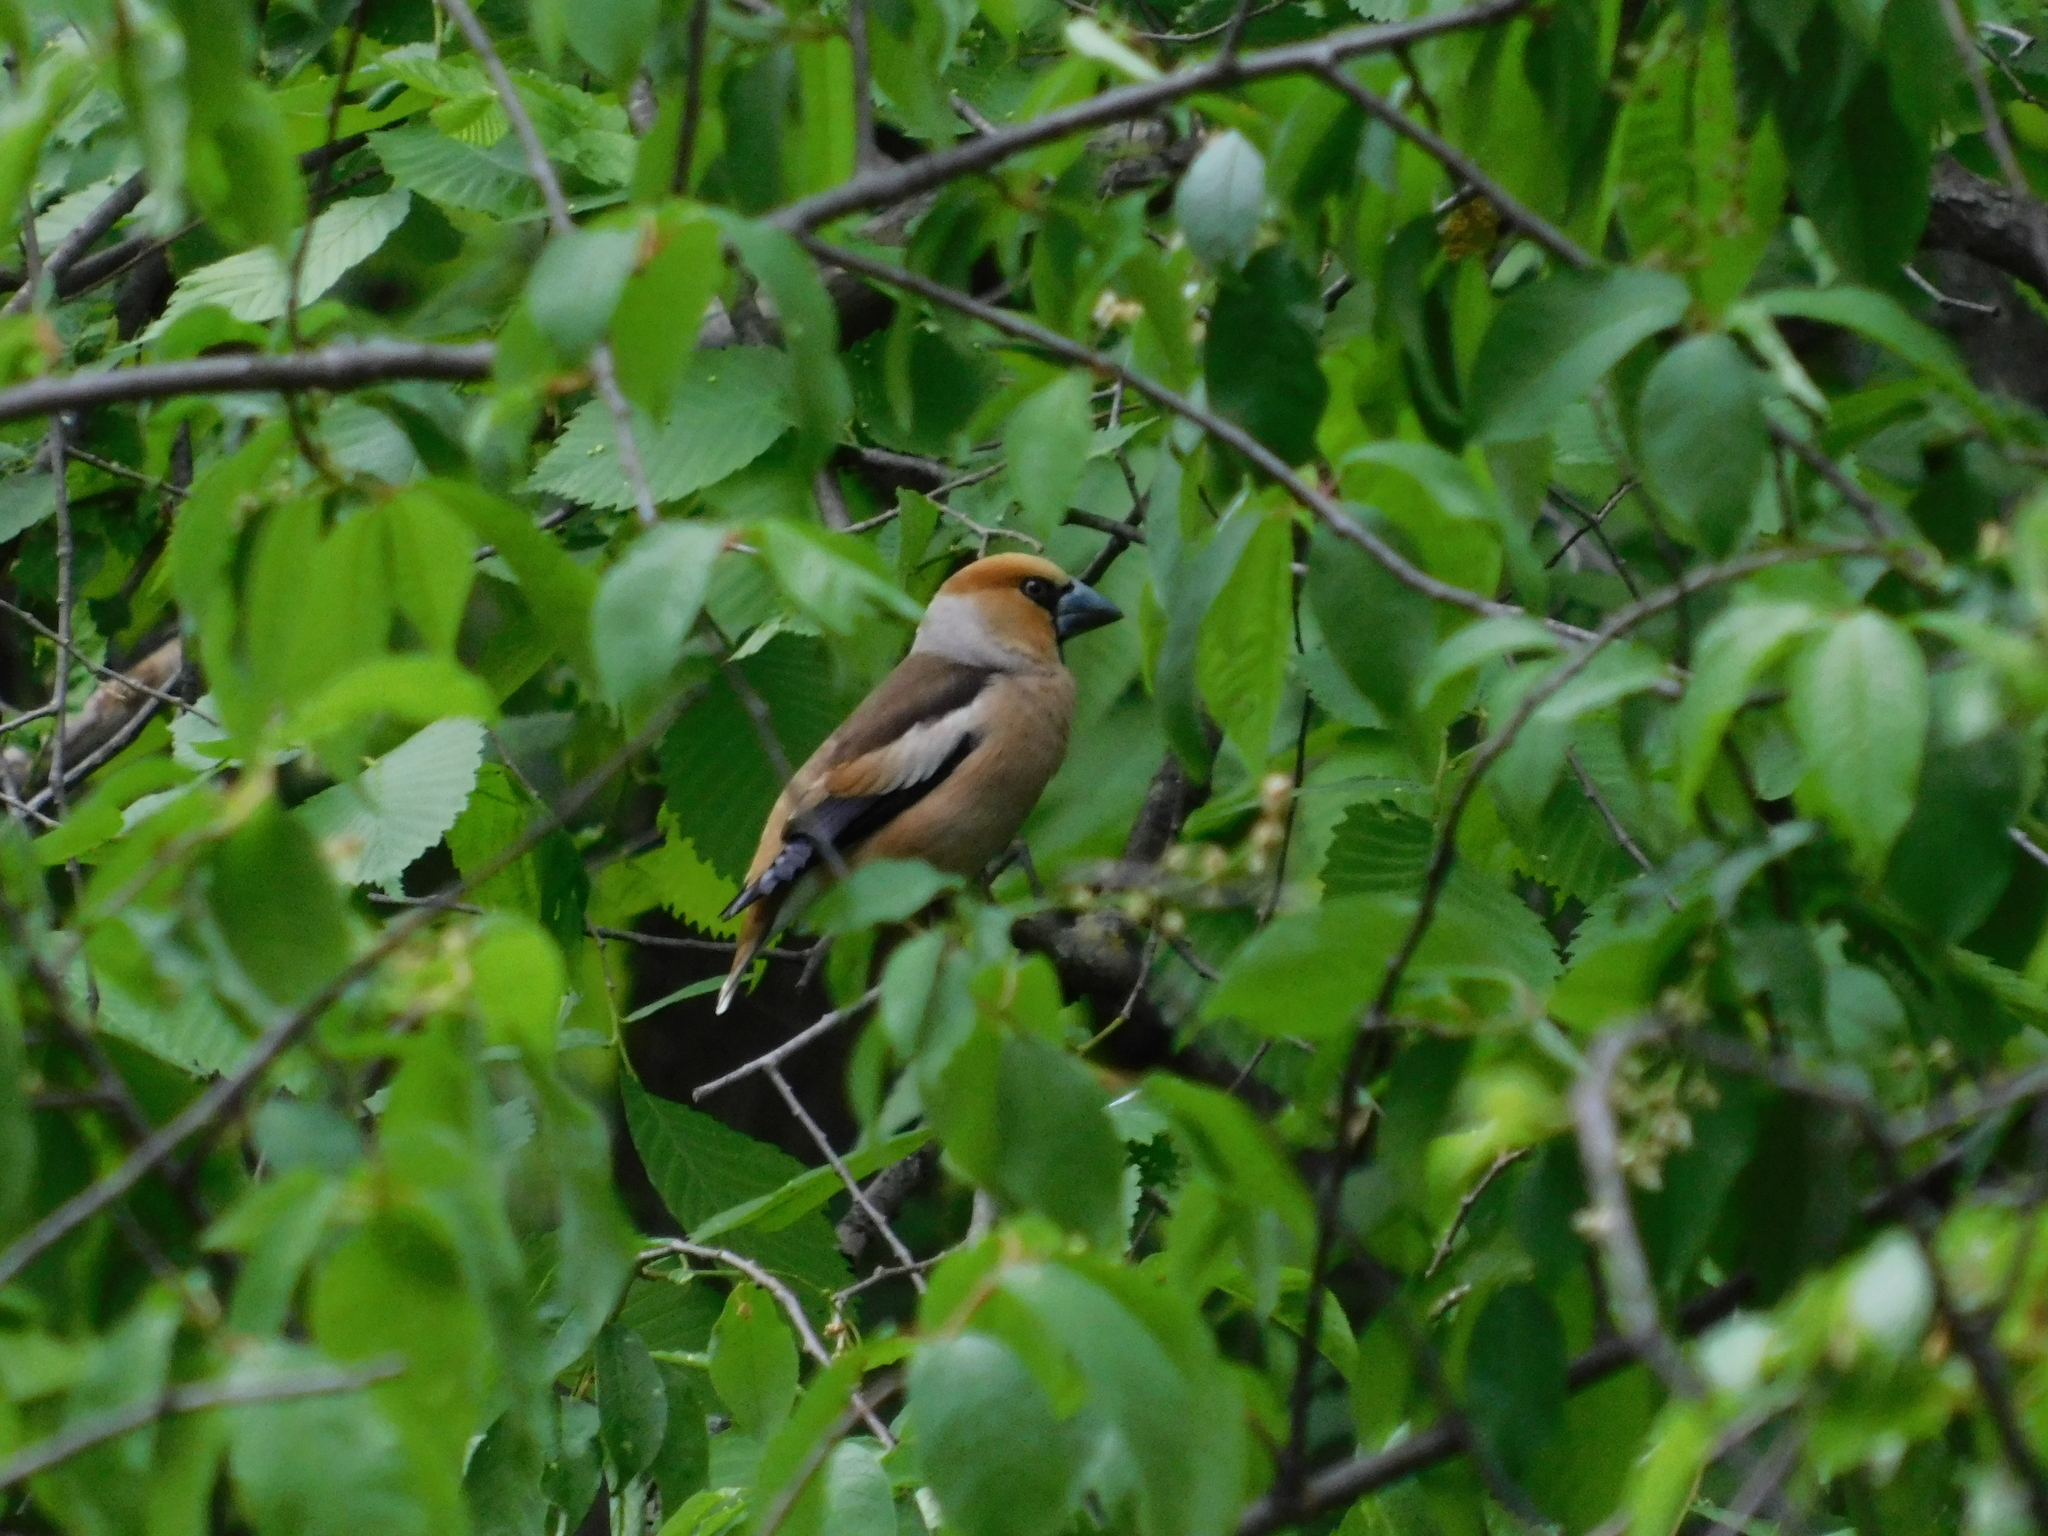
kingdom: Animalia
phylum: Chordata
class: Aves
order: Passeriformes
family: Fringillidae
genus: Coccothraustes
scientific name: Coccothraustes coccothraustes
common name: Hawfinch
